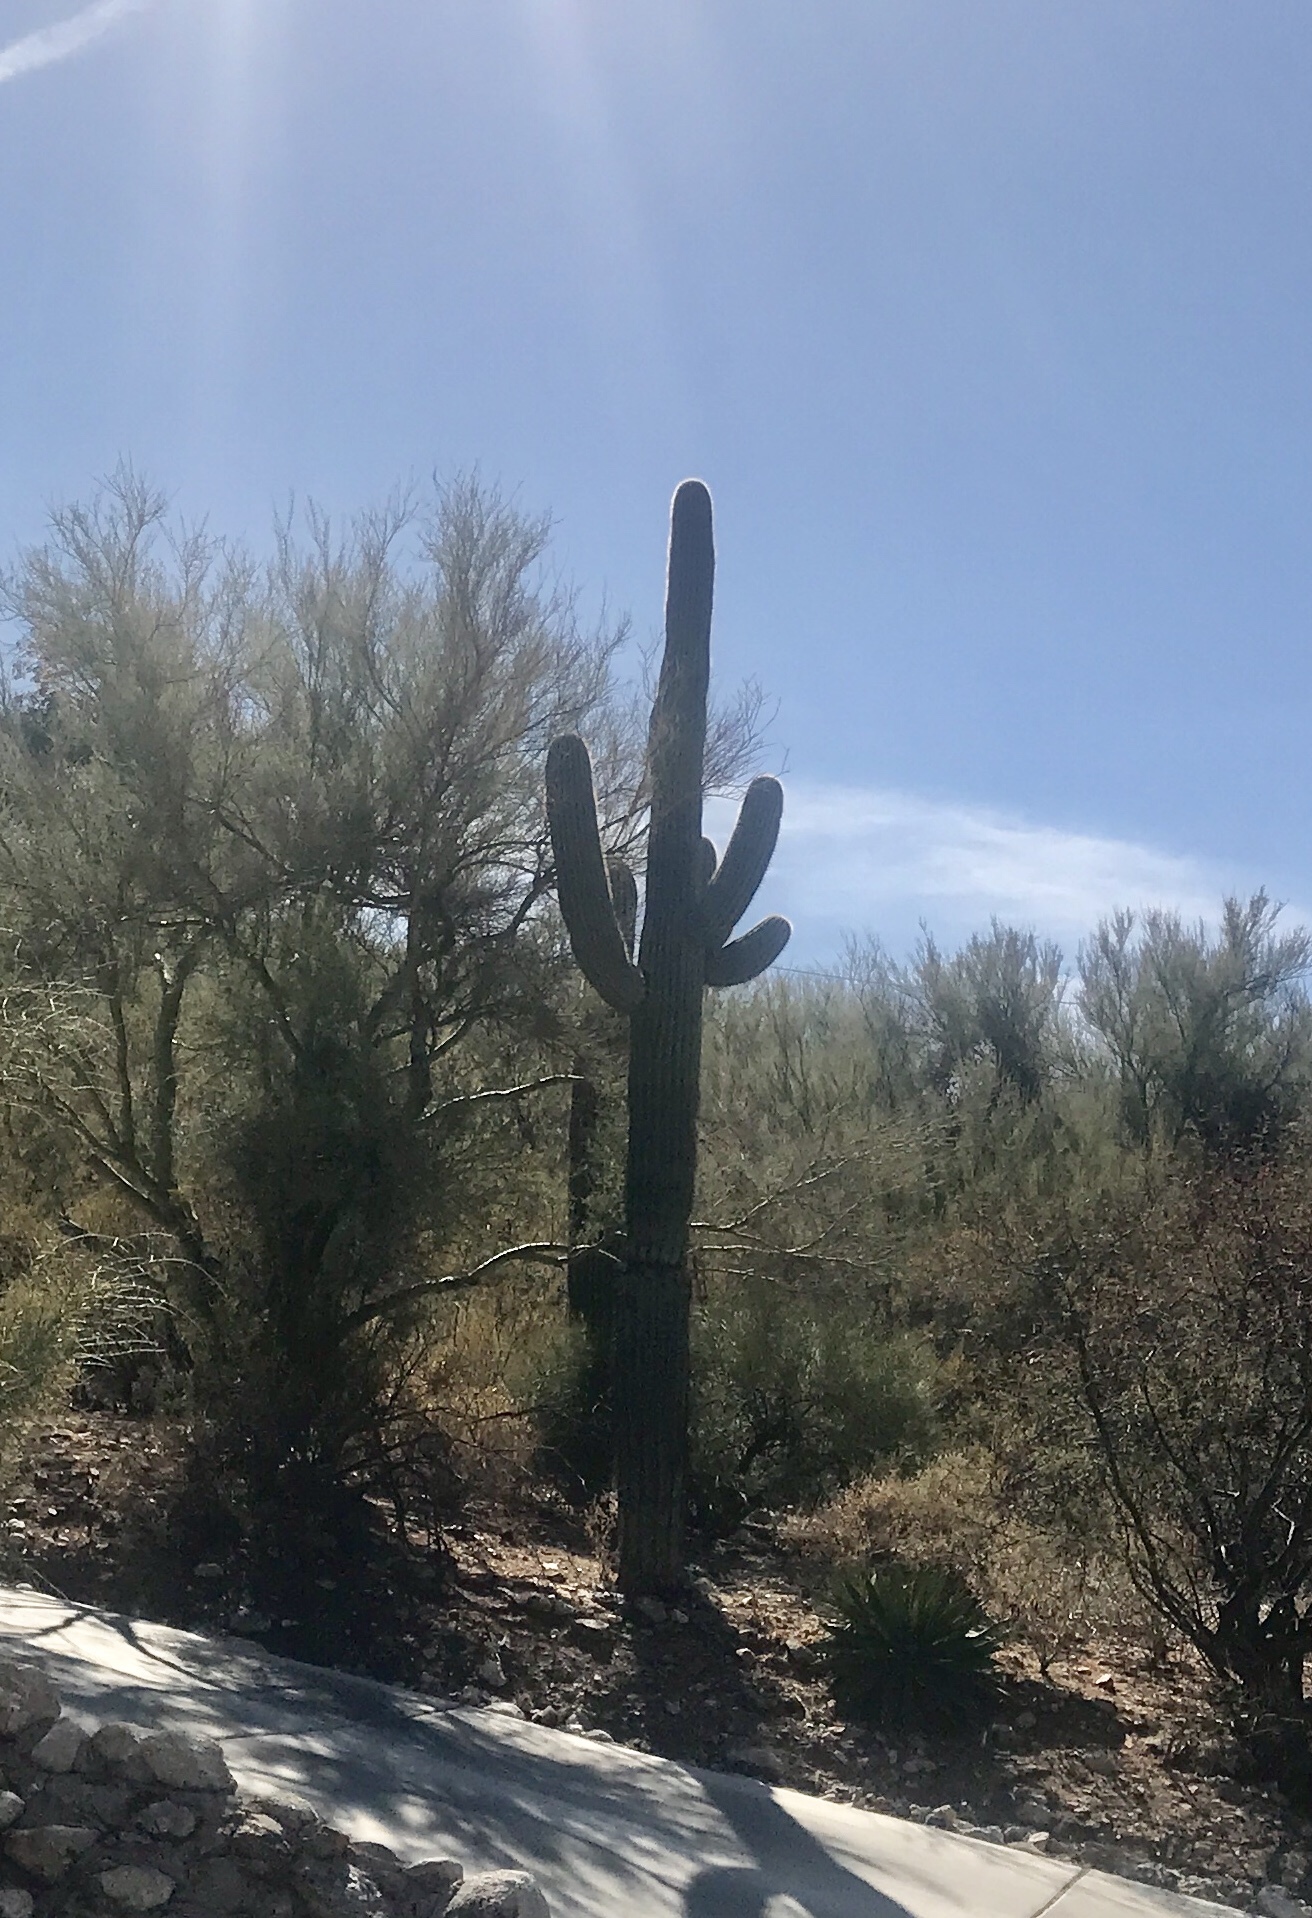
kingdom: Plantae
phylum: Tracheophyta
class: Magnoliopsida
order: Caryophyllales
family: Cactaceae
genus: Carnegiea
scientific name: Carnegiea gigantea
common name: Saguaro
